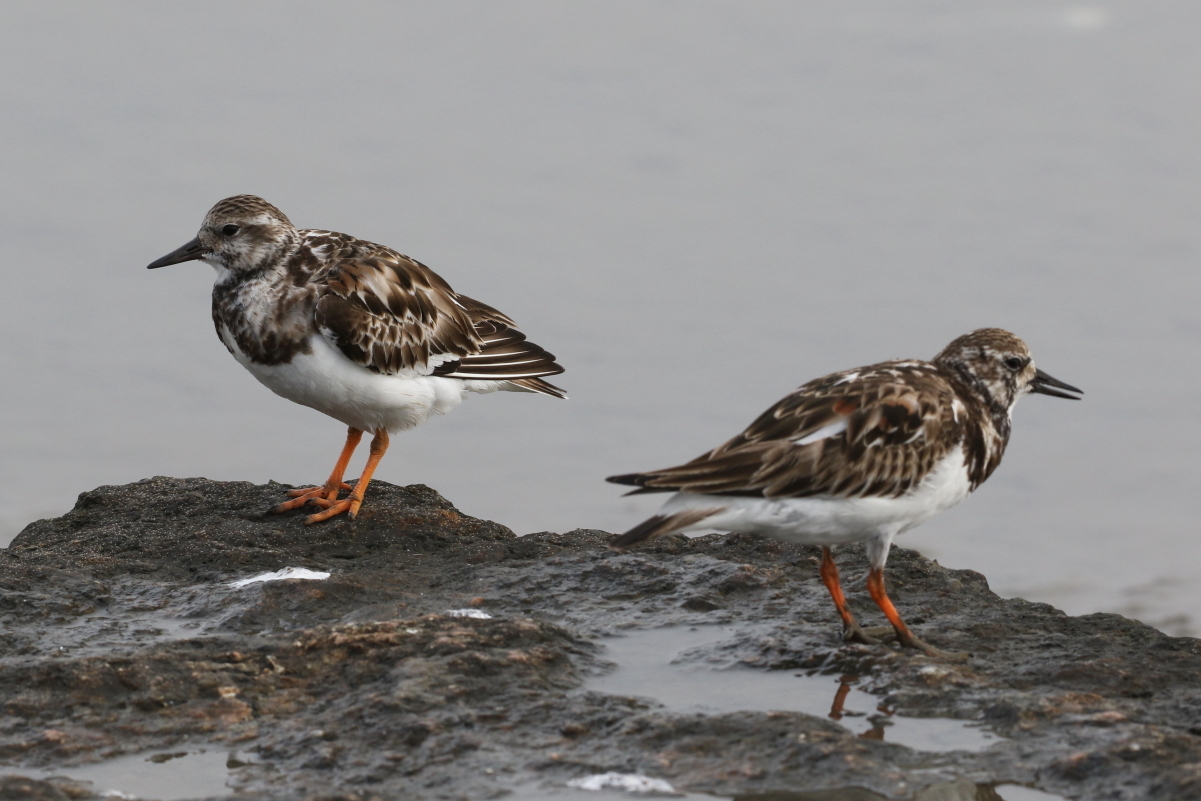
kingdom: Animalia
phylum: Chordata
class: Aves
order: Charadriiformes
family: Scolopacidae
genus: Arenaria
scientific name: Arenaria interpres
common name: Ruddy turnstone
